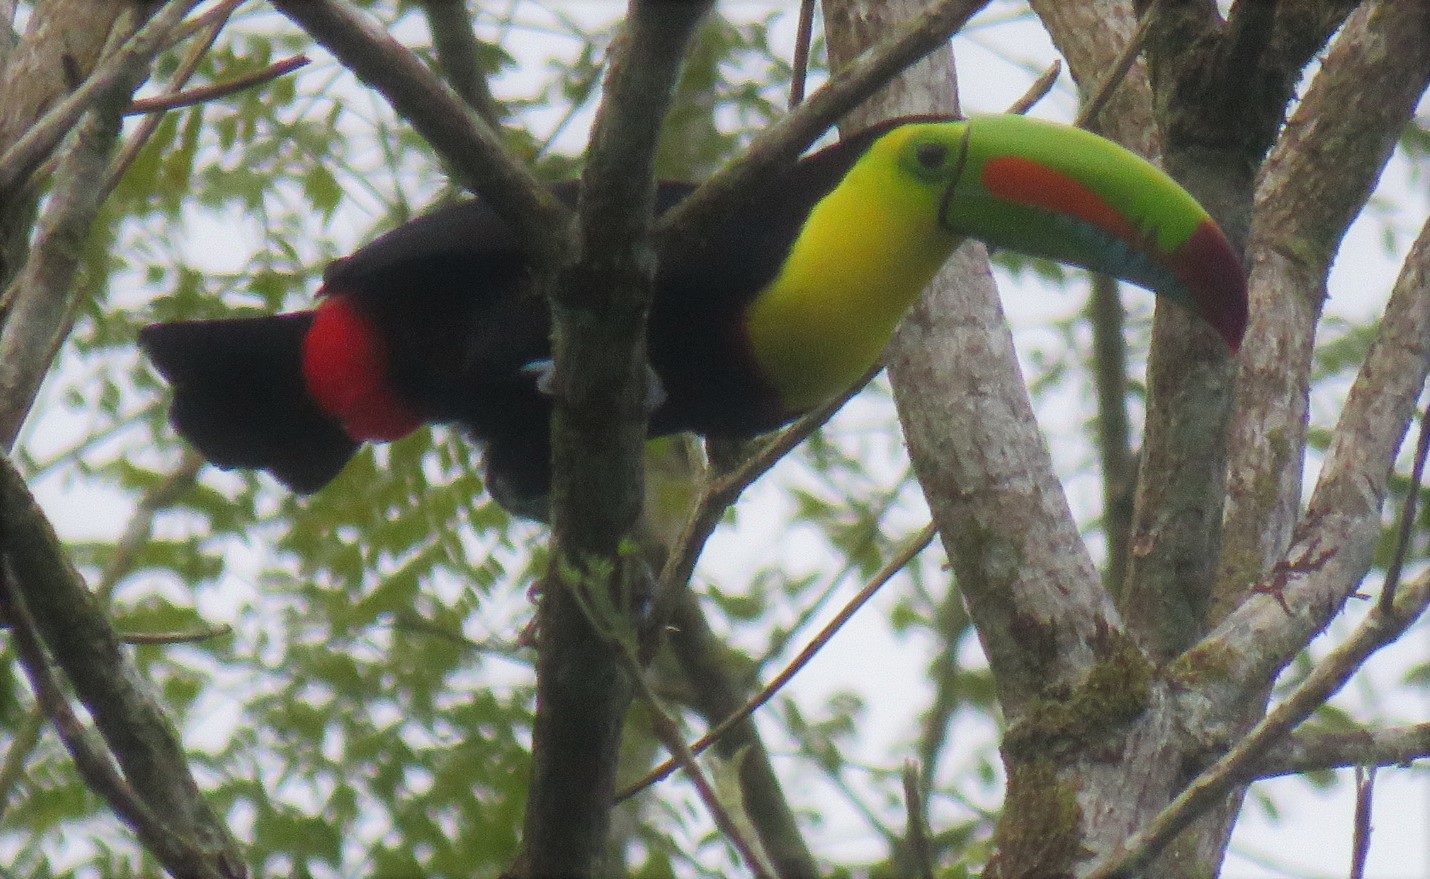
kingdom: Animalia
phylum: Chordata
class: Aves
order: Piciformes
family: Ramphastidae
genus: Ramphastos
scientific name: Ramphastos sulfuratus
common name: Keel-billed toucan
